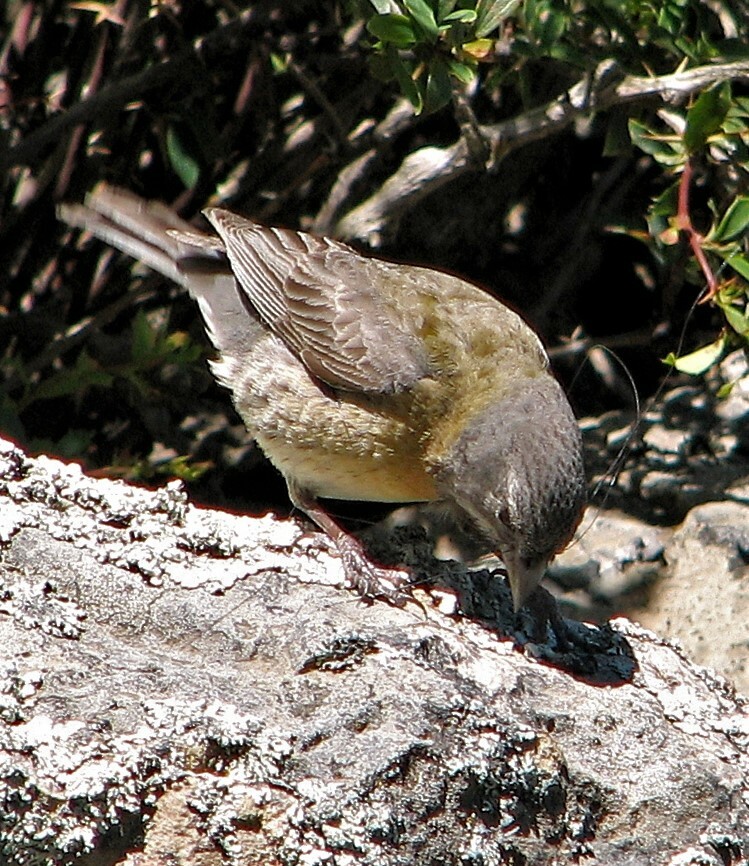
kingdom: Animalia
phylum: Chordata
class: Aves
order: Passeriformes
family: Thraupidae
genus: Phrygilus
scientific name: Phrygilus gayi
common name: Grey-hooded sierra finch
